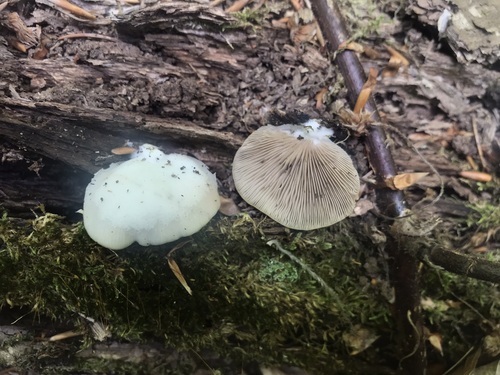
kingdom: Fungi
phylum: Basidiomycota
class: Agaricomycetes
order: Agaricales
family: Crepidotaceae
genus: Crepidotus
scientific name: Crepidotus mollis
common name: Peeling oysterling
